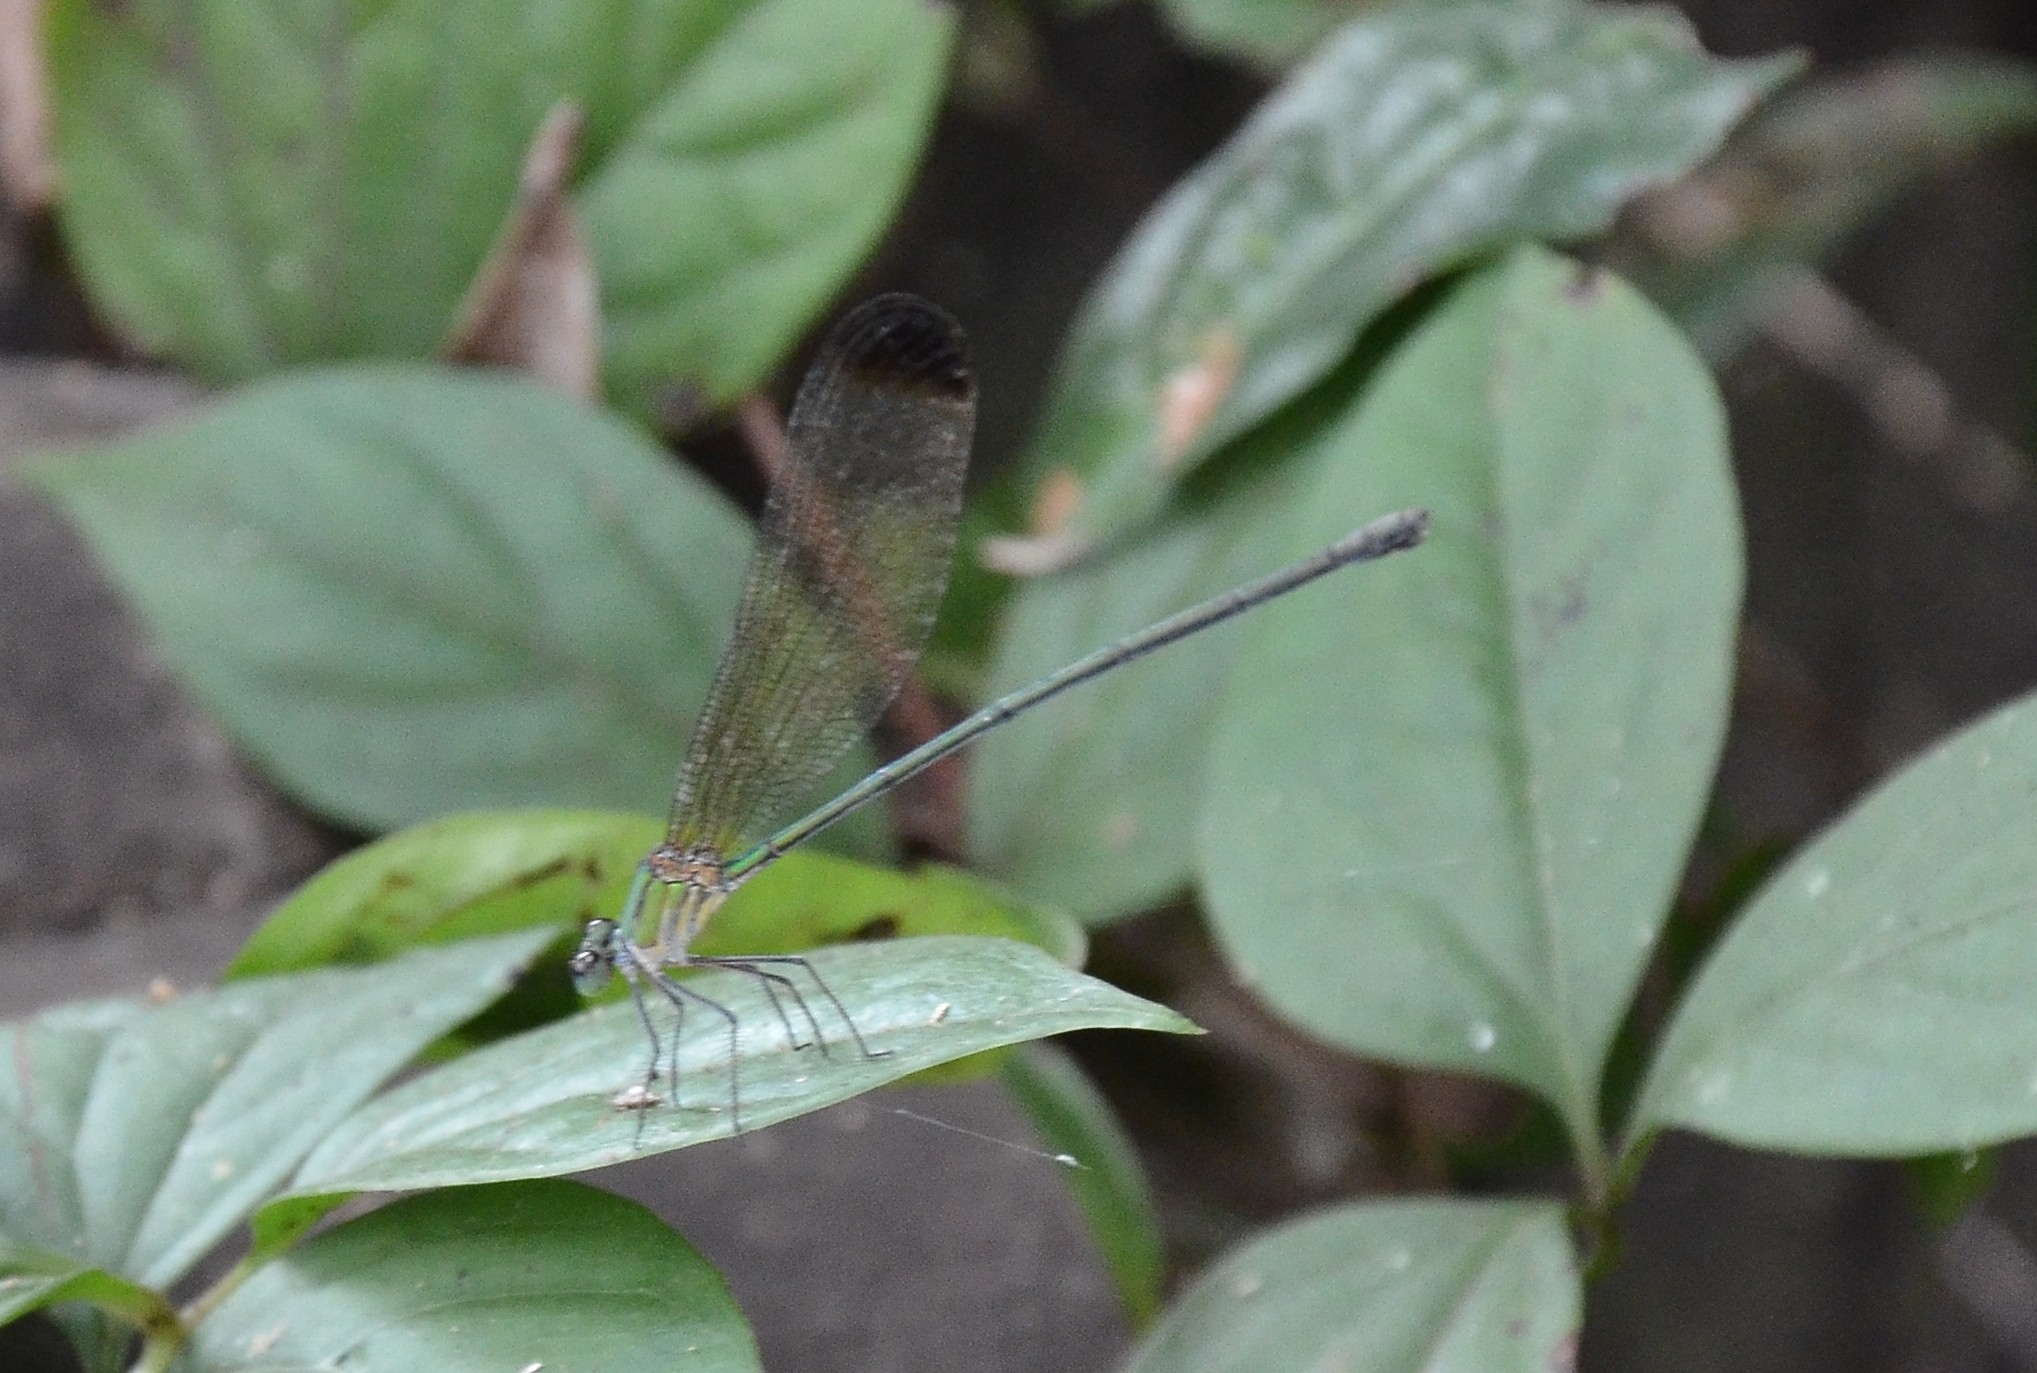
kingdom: Animalia
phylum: Arthropoda
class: Insecta
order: Odonata
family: Calopterygidae
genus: Vestalis
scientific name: Vestalis apicalis
